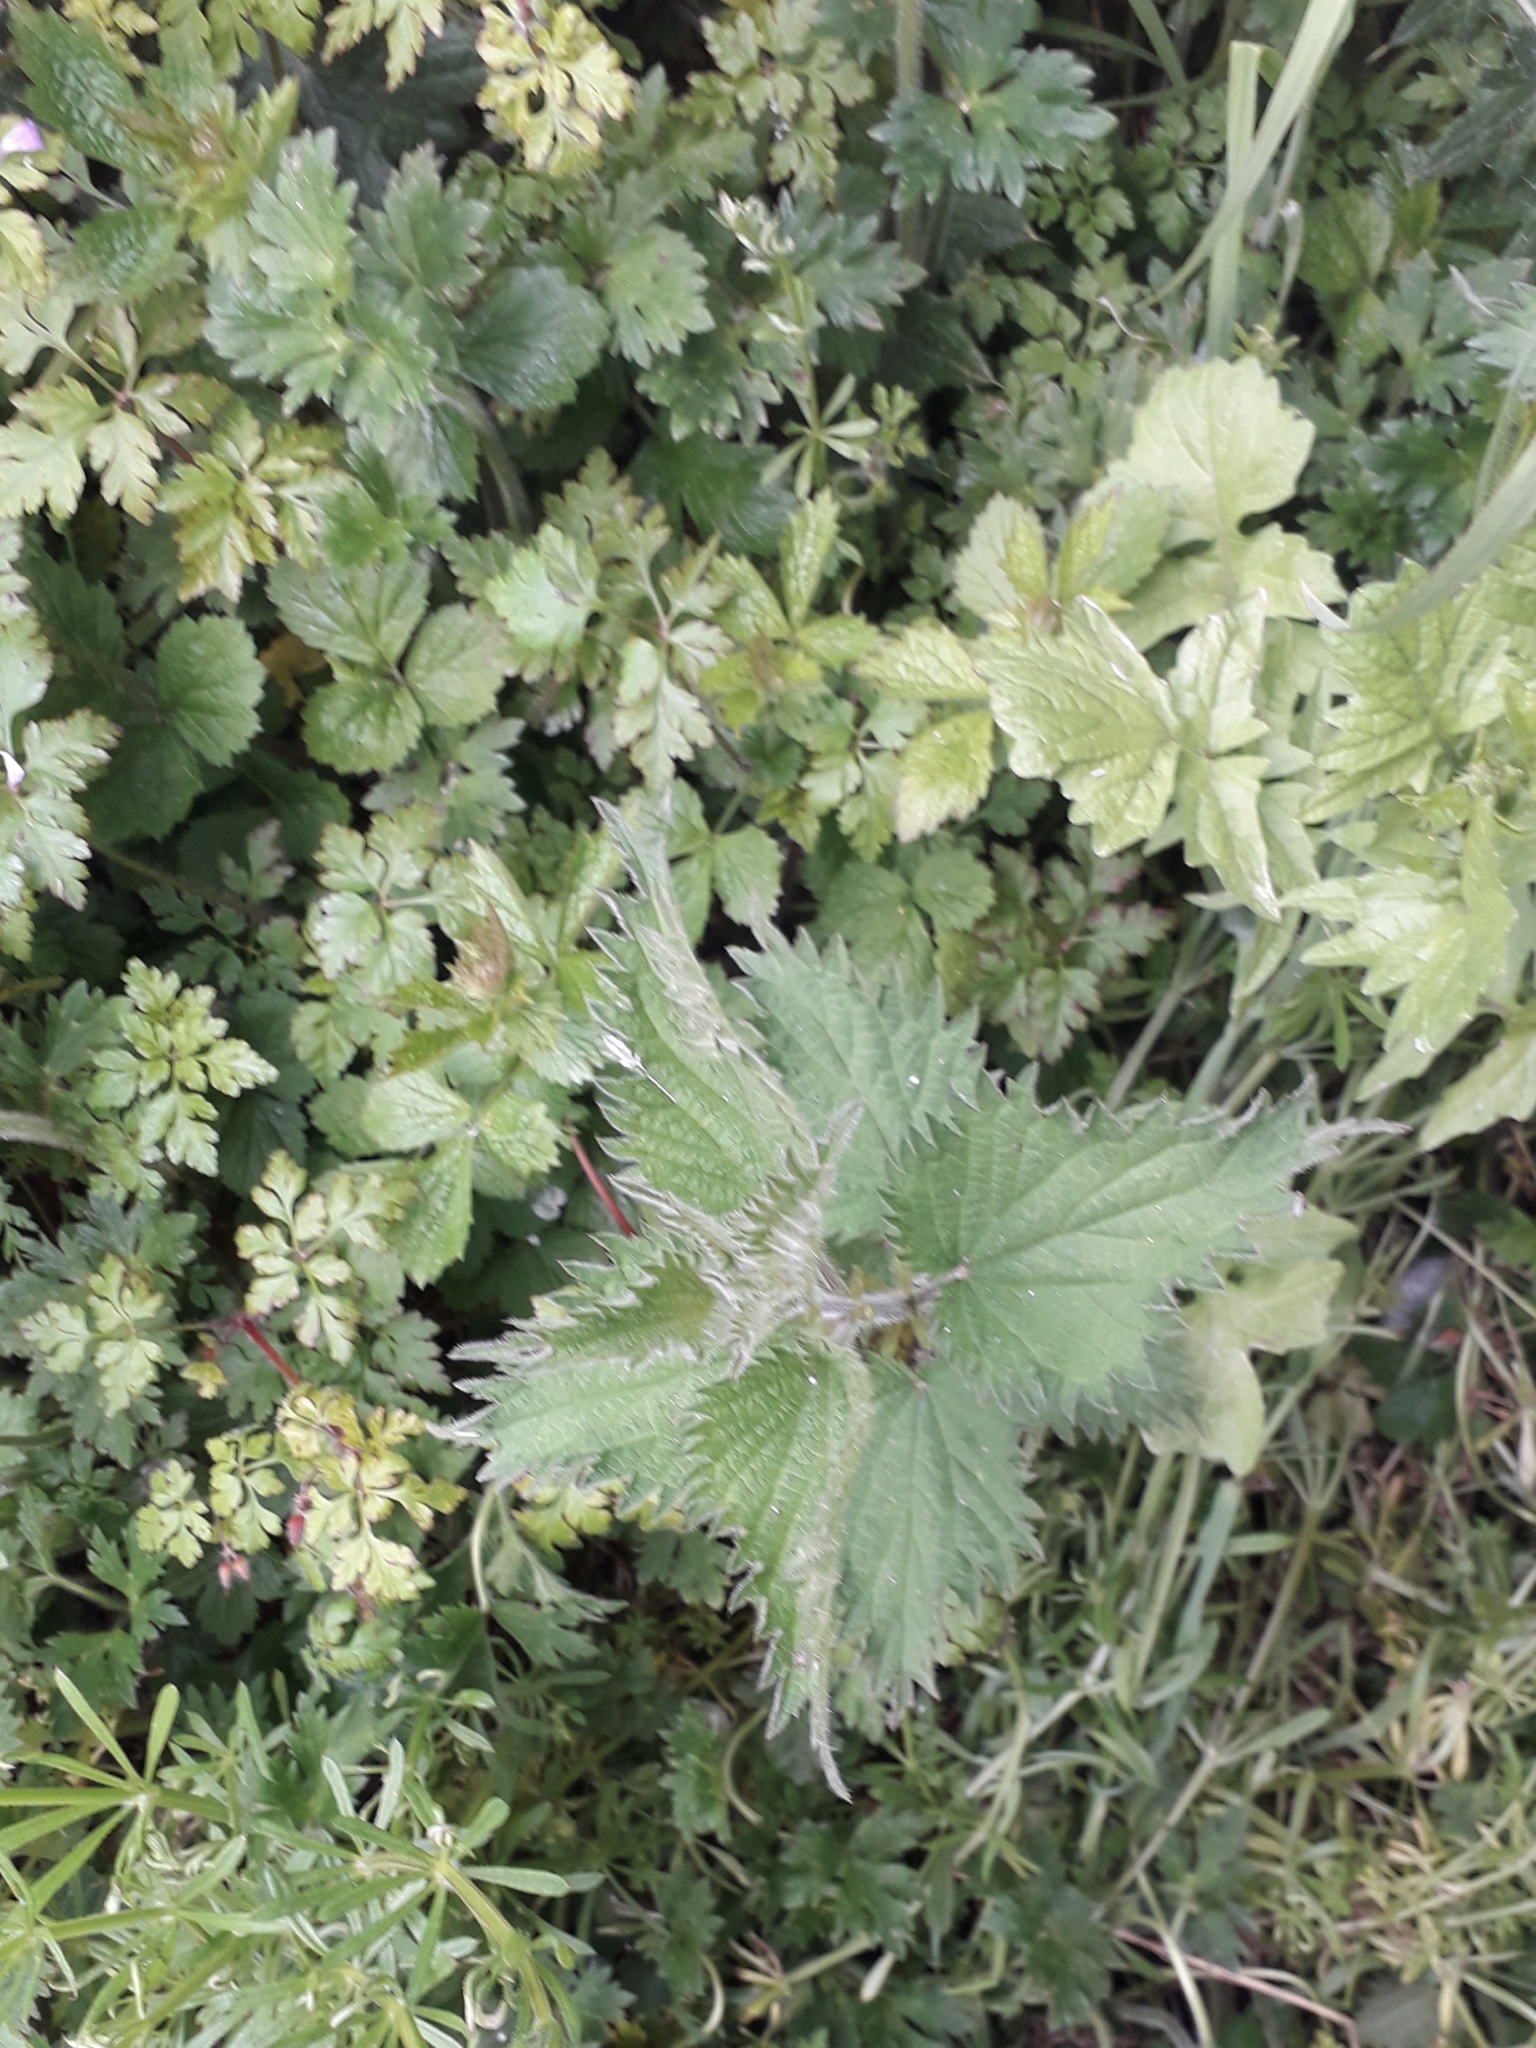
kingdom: Plantae
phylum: Tracheophyta
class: Magnoliopsida
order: Rosales
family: Urticaceae
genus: Urtica
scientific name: Urtica dioica
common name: Common nettle
